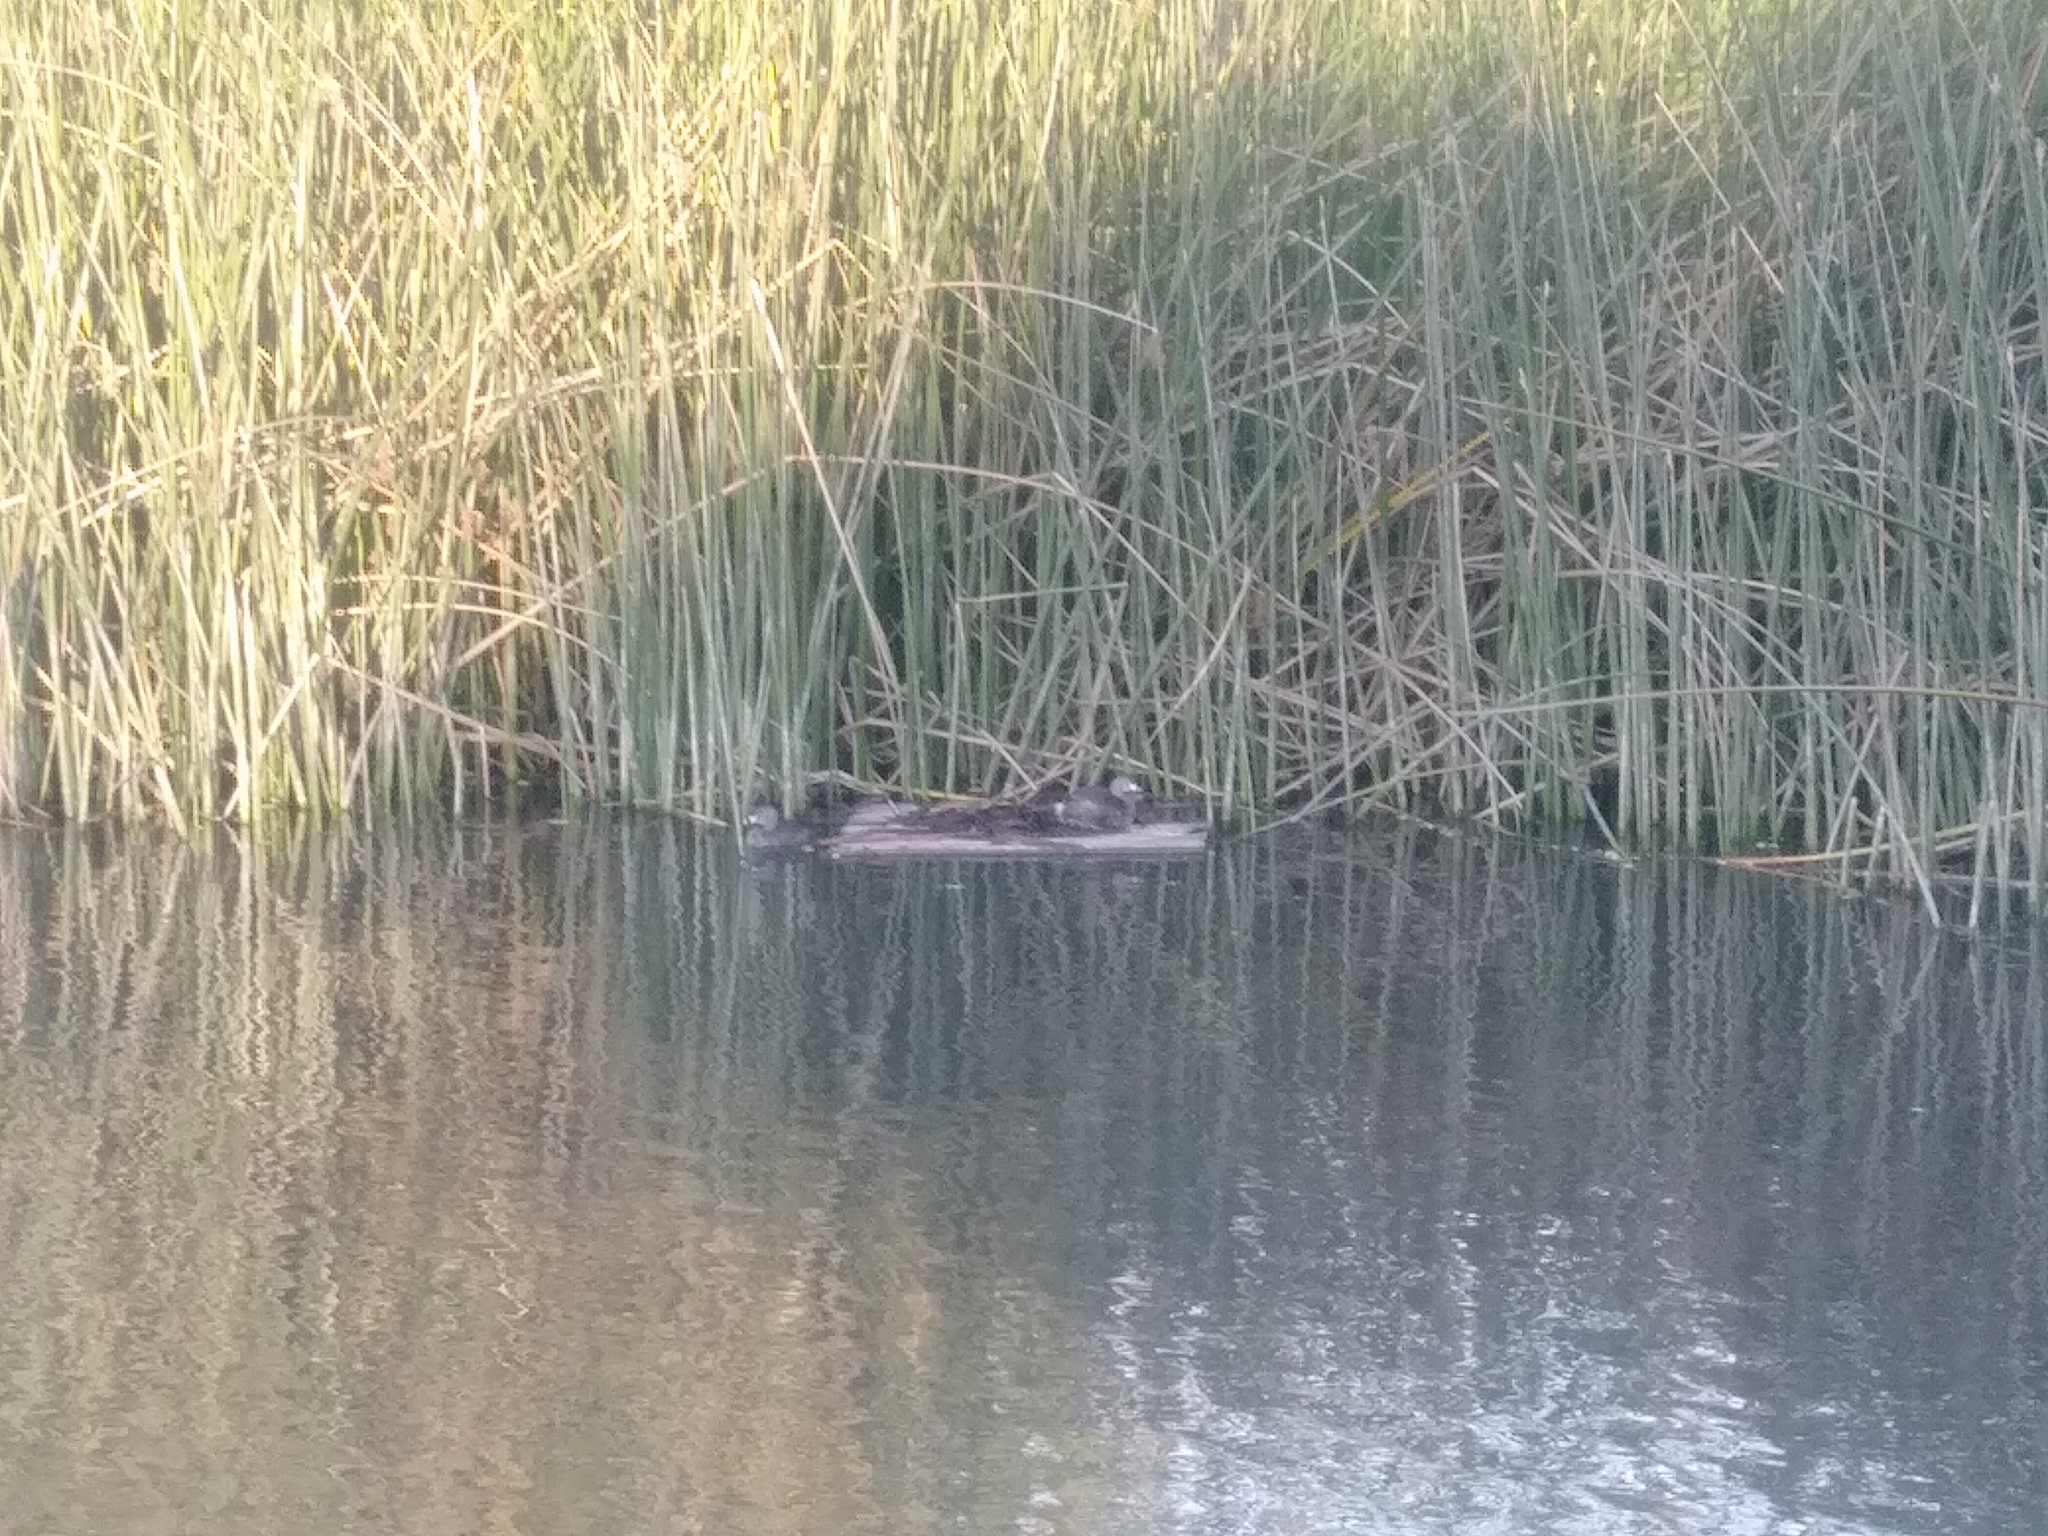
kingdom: Animalia
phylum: Chordata
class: Aves
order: Podicipediformes
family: Podicipedidae
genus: Podilymbus
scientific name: Podilymbus podiceps
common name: Pied-billed grebe
